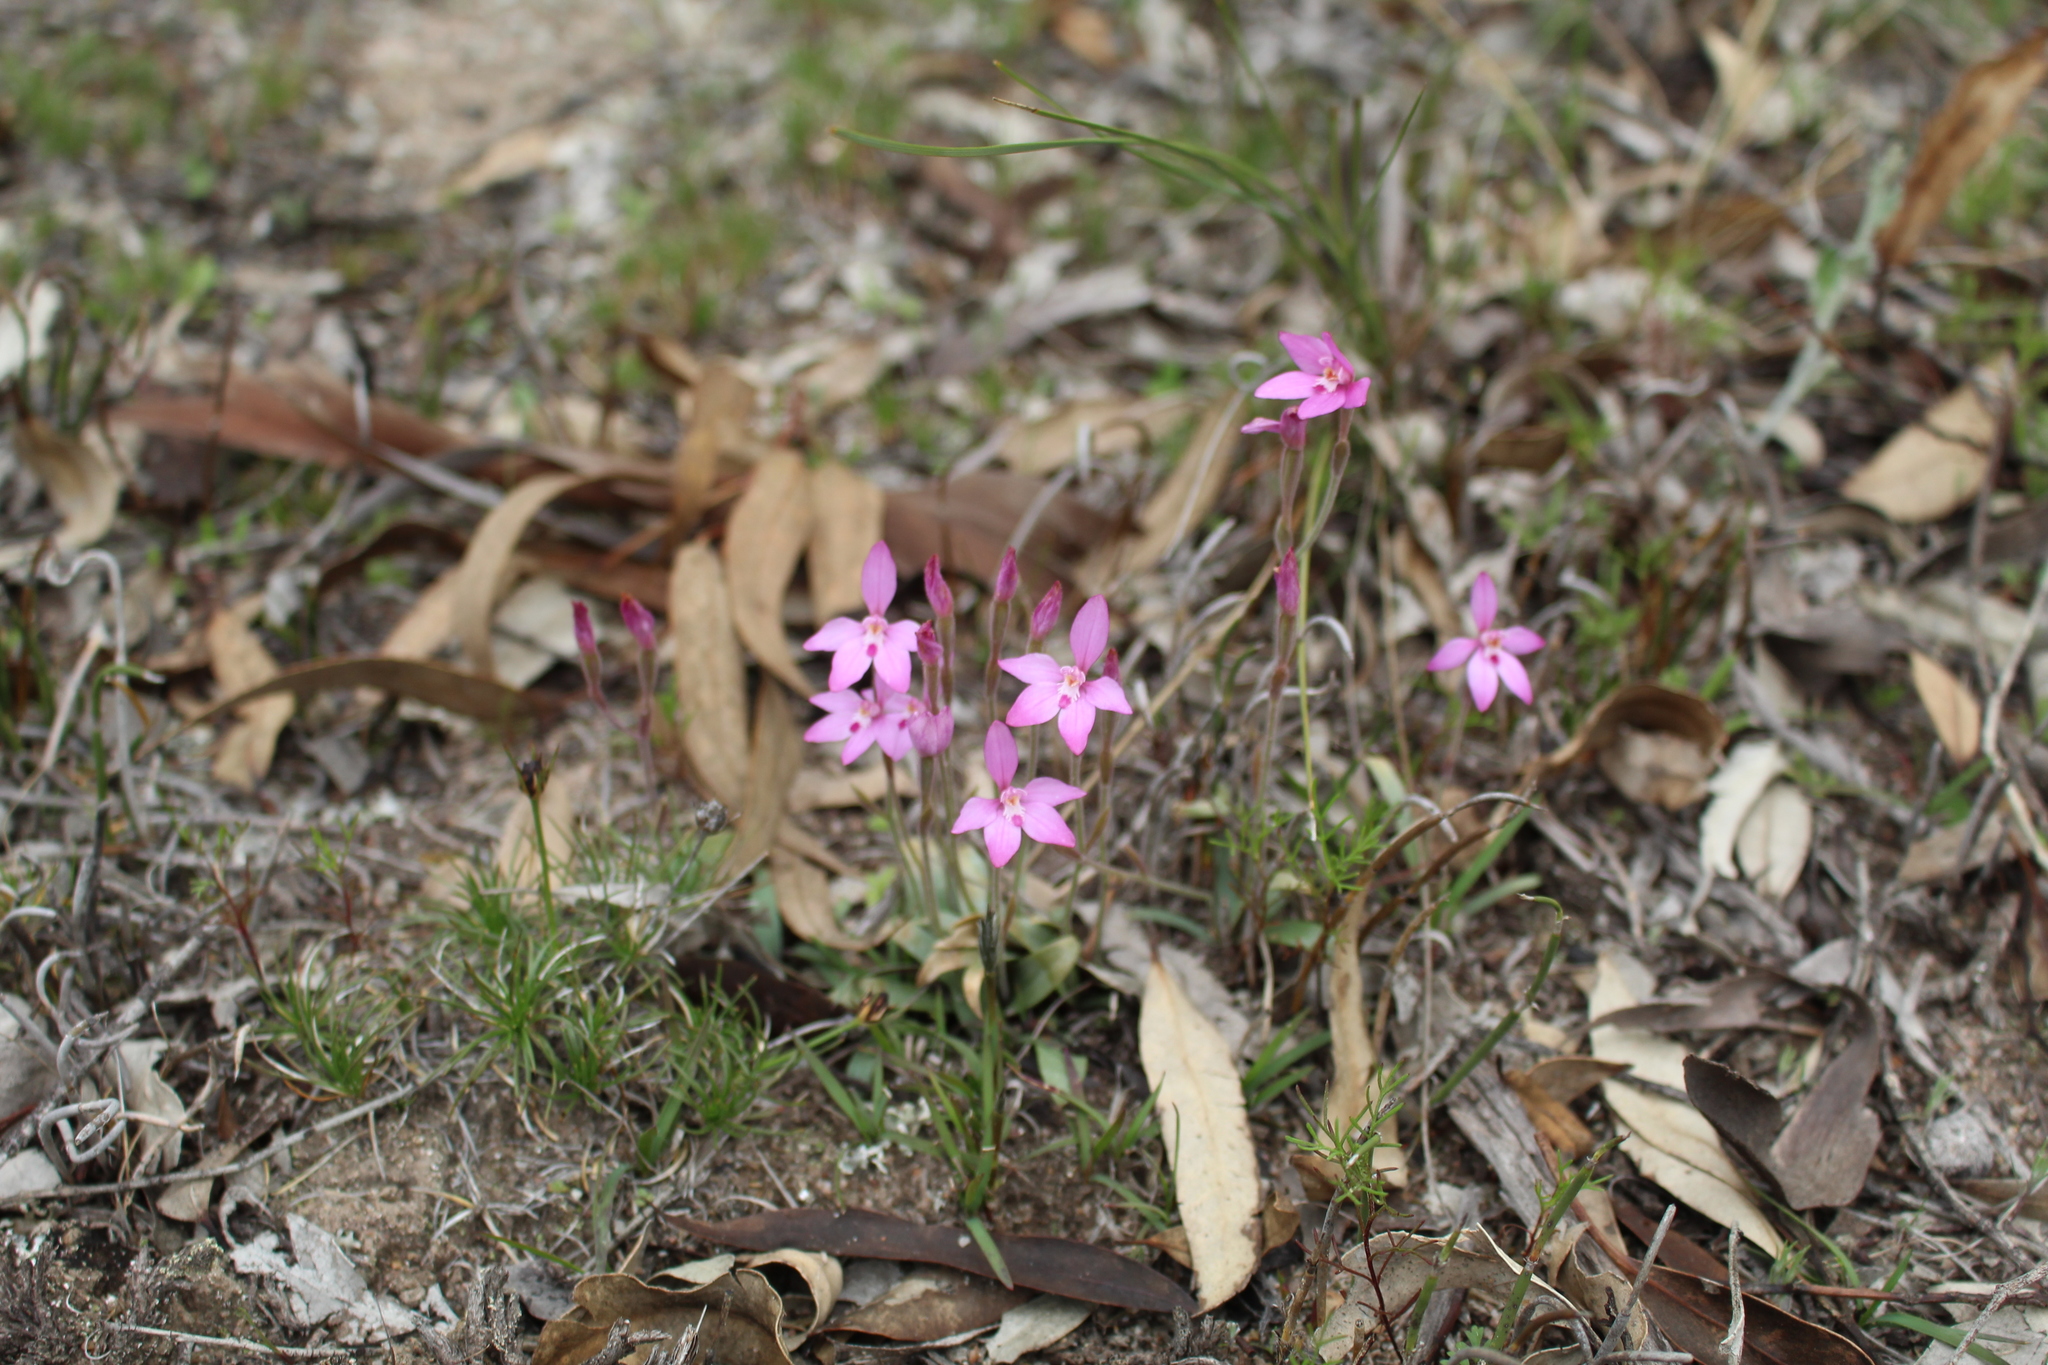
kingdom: Plantae
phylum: Tracheophyta
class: Liliopsida
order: Asparagales
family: Orchidaceae
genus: Caladenia
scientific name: Caladenia reptans
